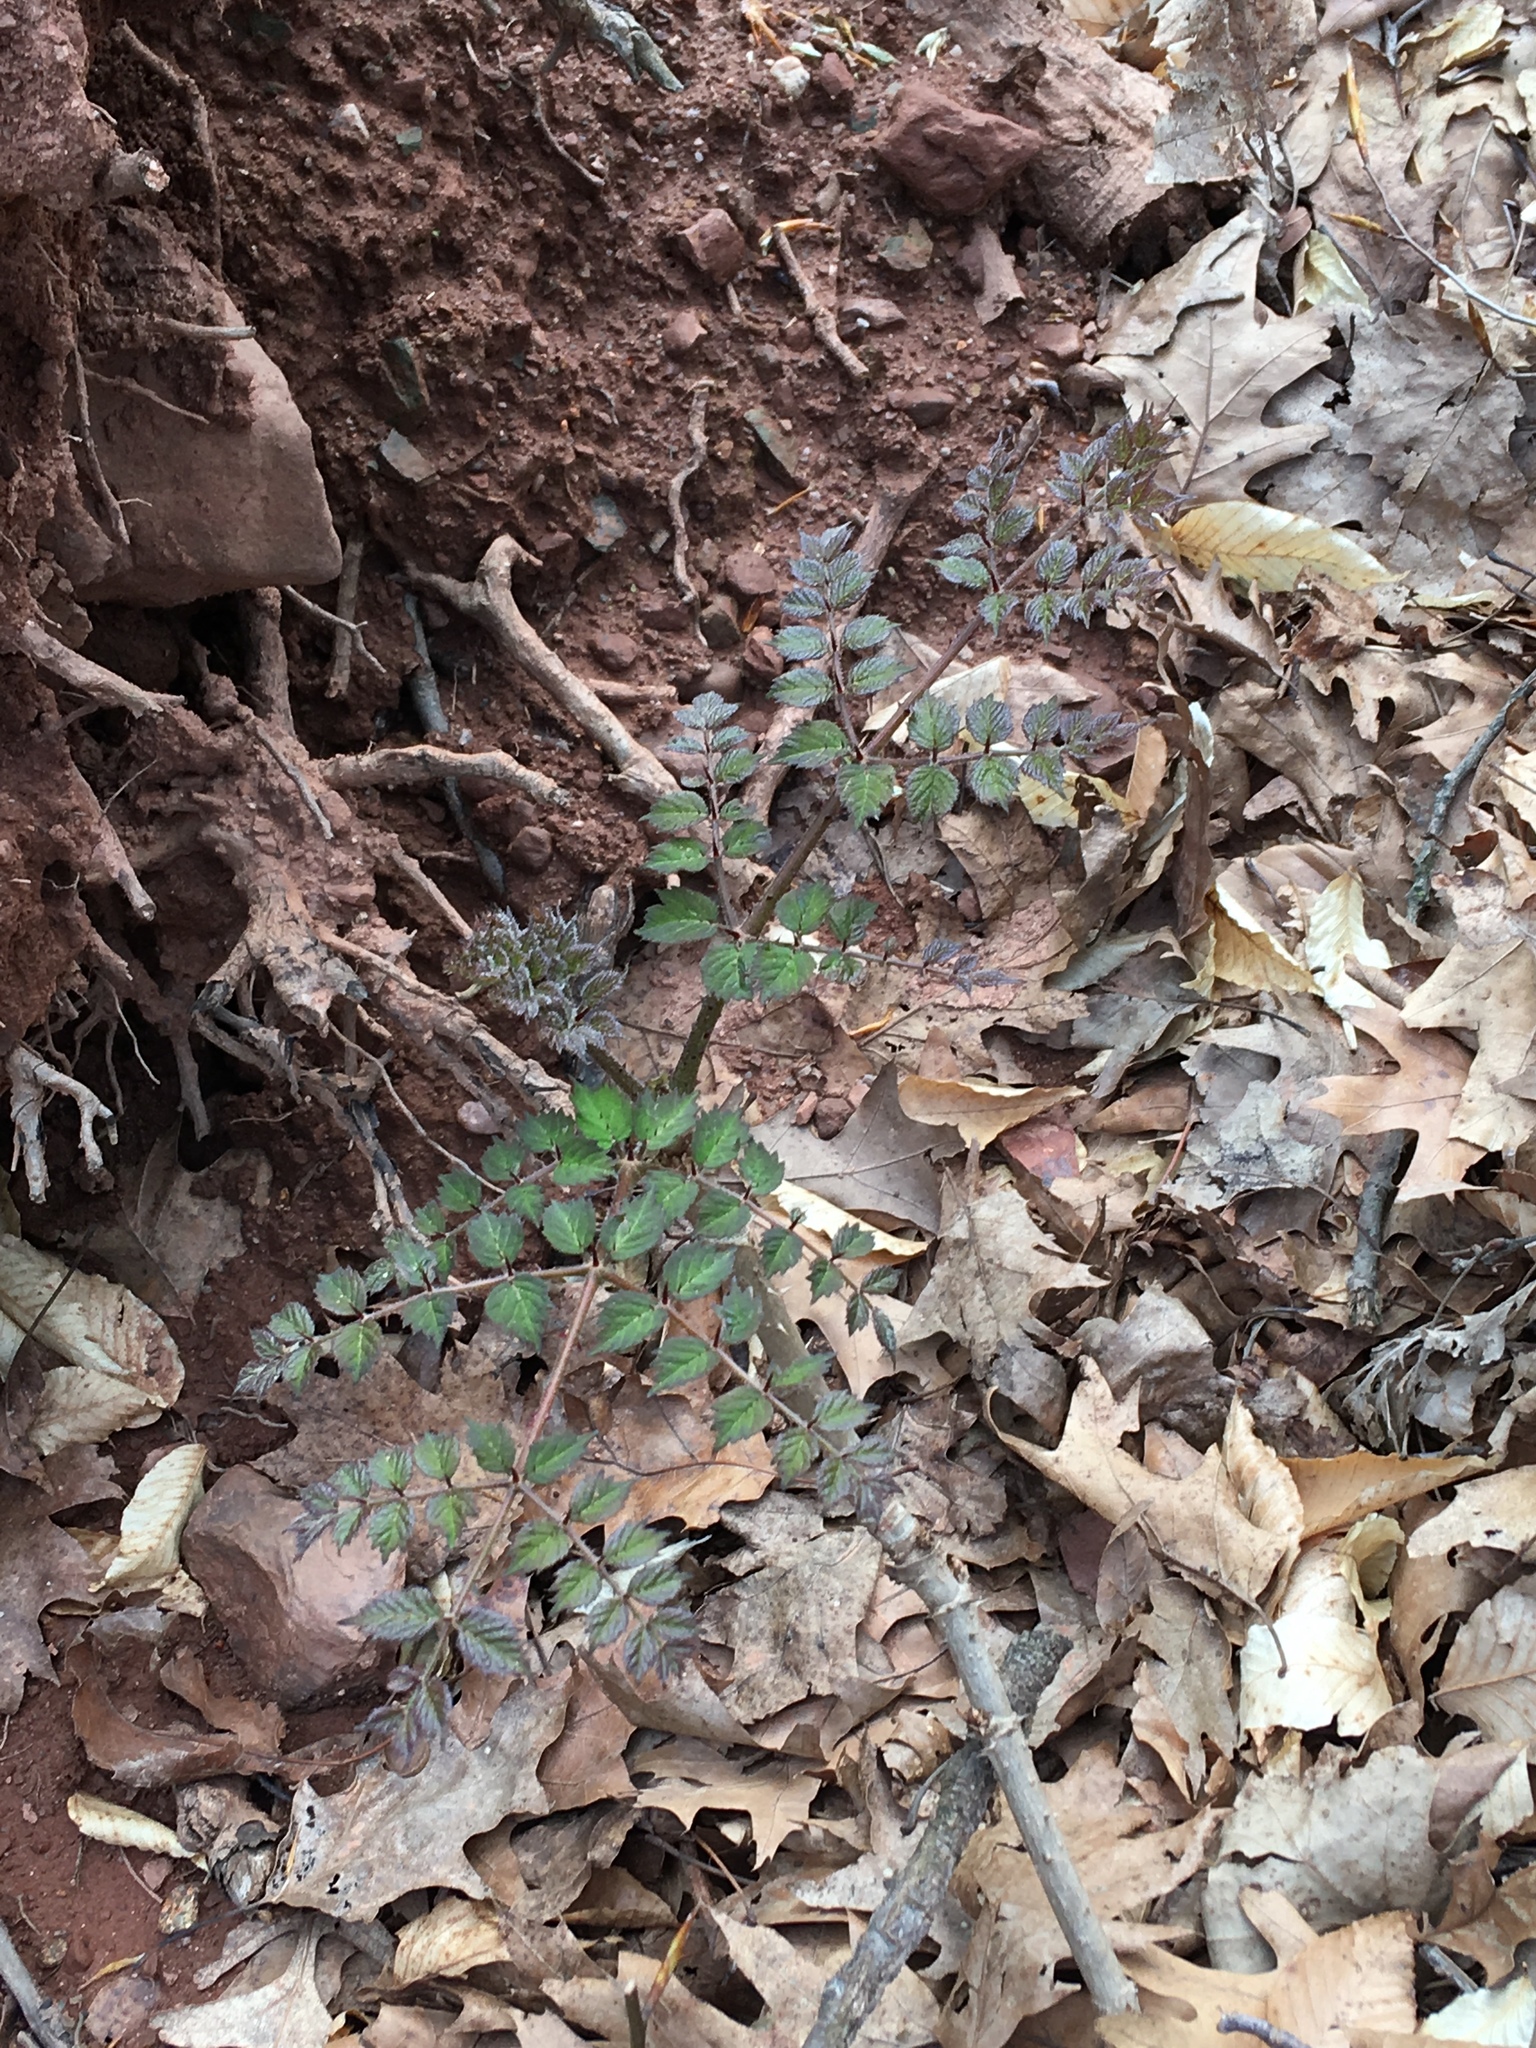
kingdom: Plantae
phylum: Tracheophyta
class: Magnoliopsida
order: Apiales
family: Araliaceae
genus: Aralia
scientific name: Aralia elata
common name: Japanese angelica-tree
